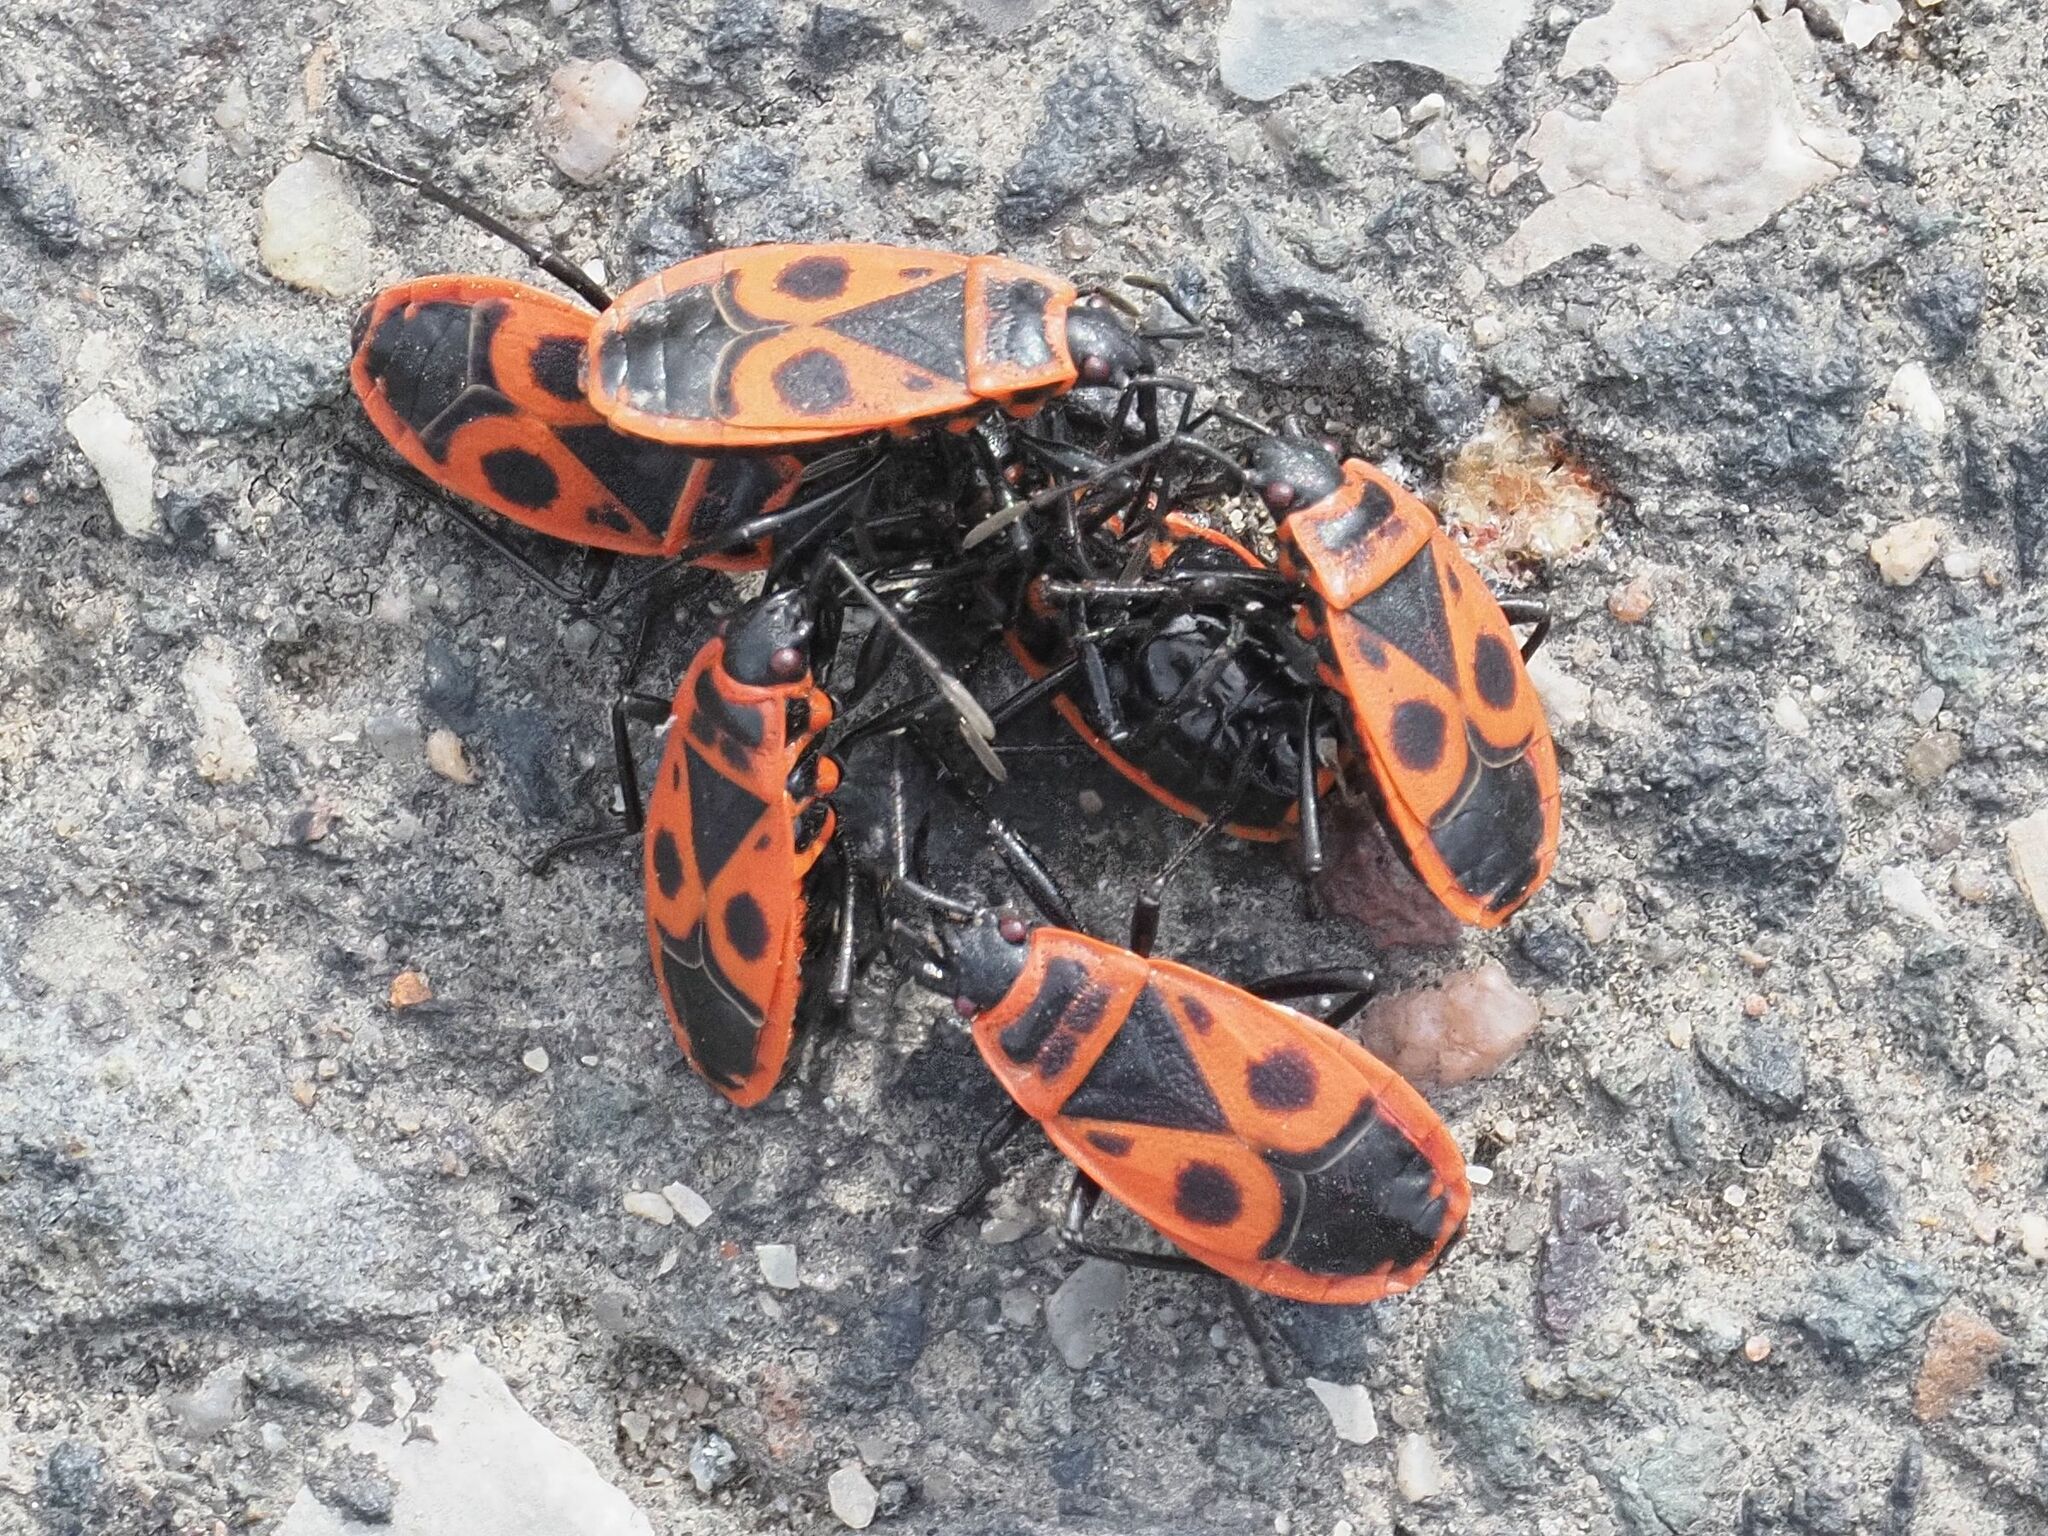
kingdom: Animalia
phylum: Arthropoda
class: Insecta
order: Hemiptera
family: Pyrrhocoridae
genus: Pyrrhocoris
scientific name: Pyrrhocoris apterus
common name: Firebug
